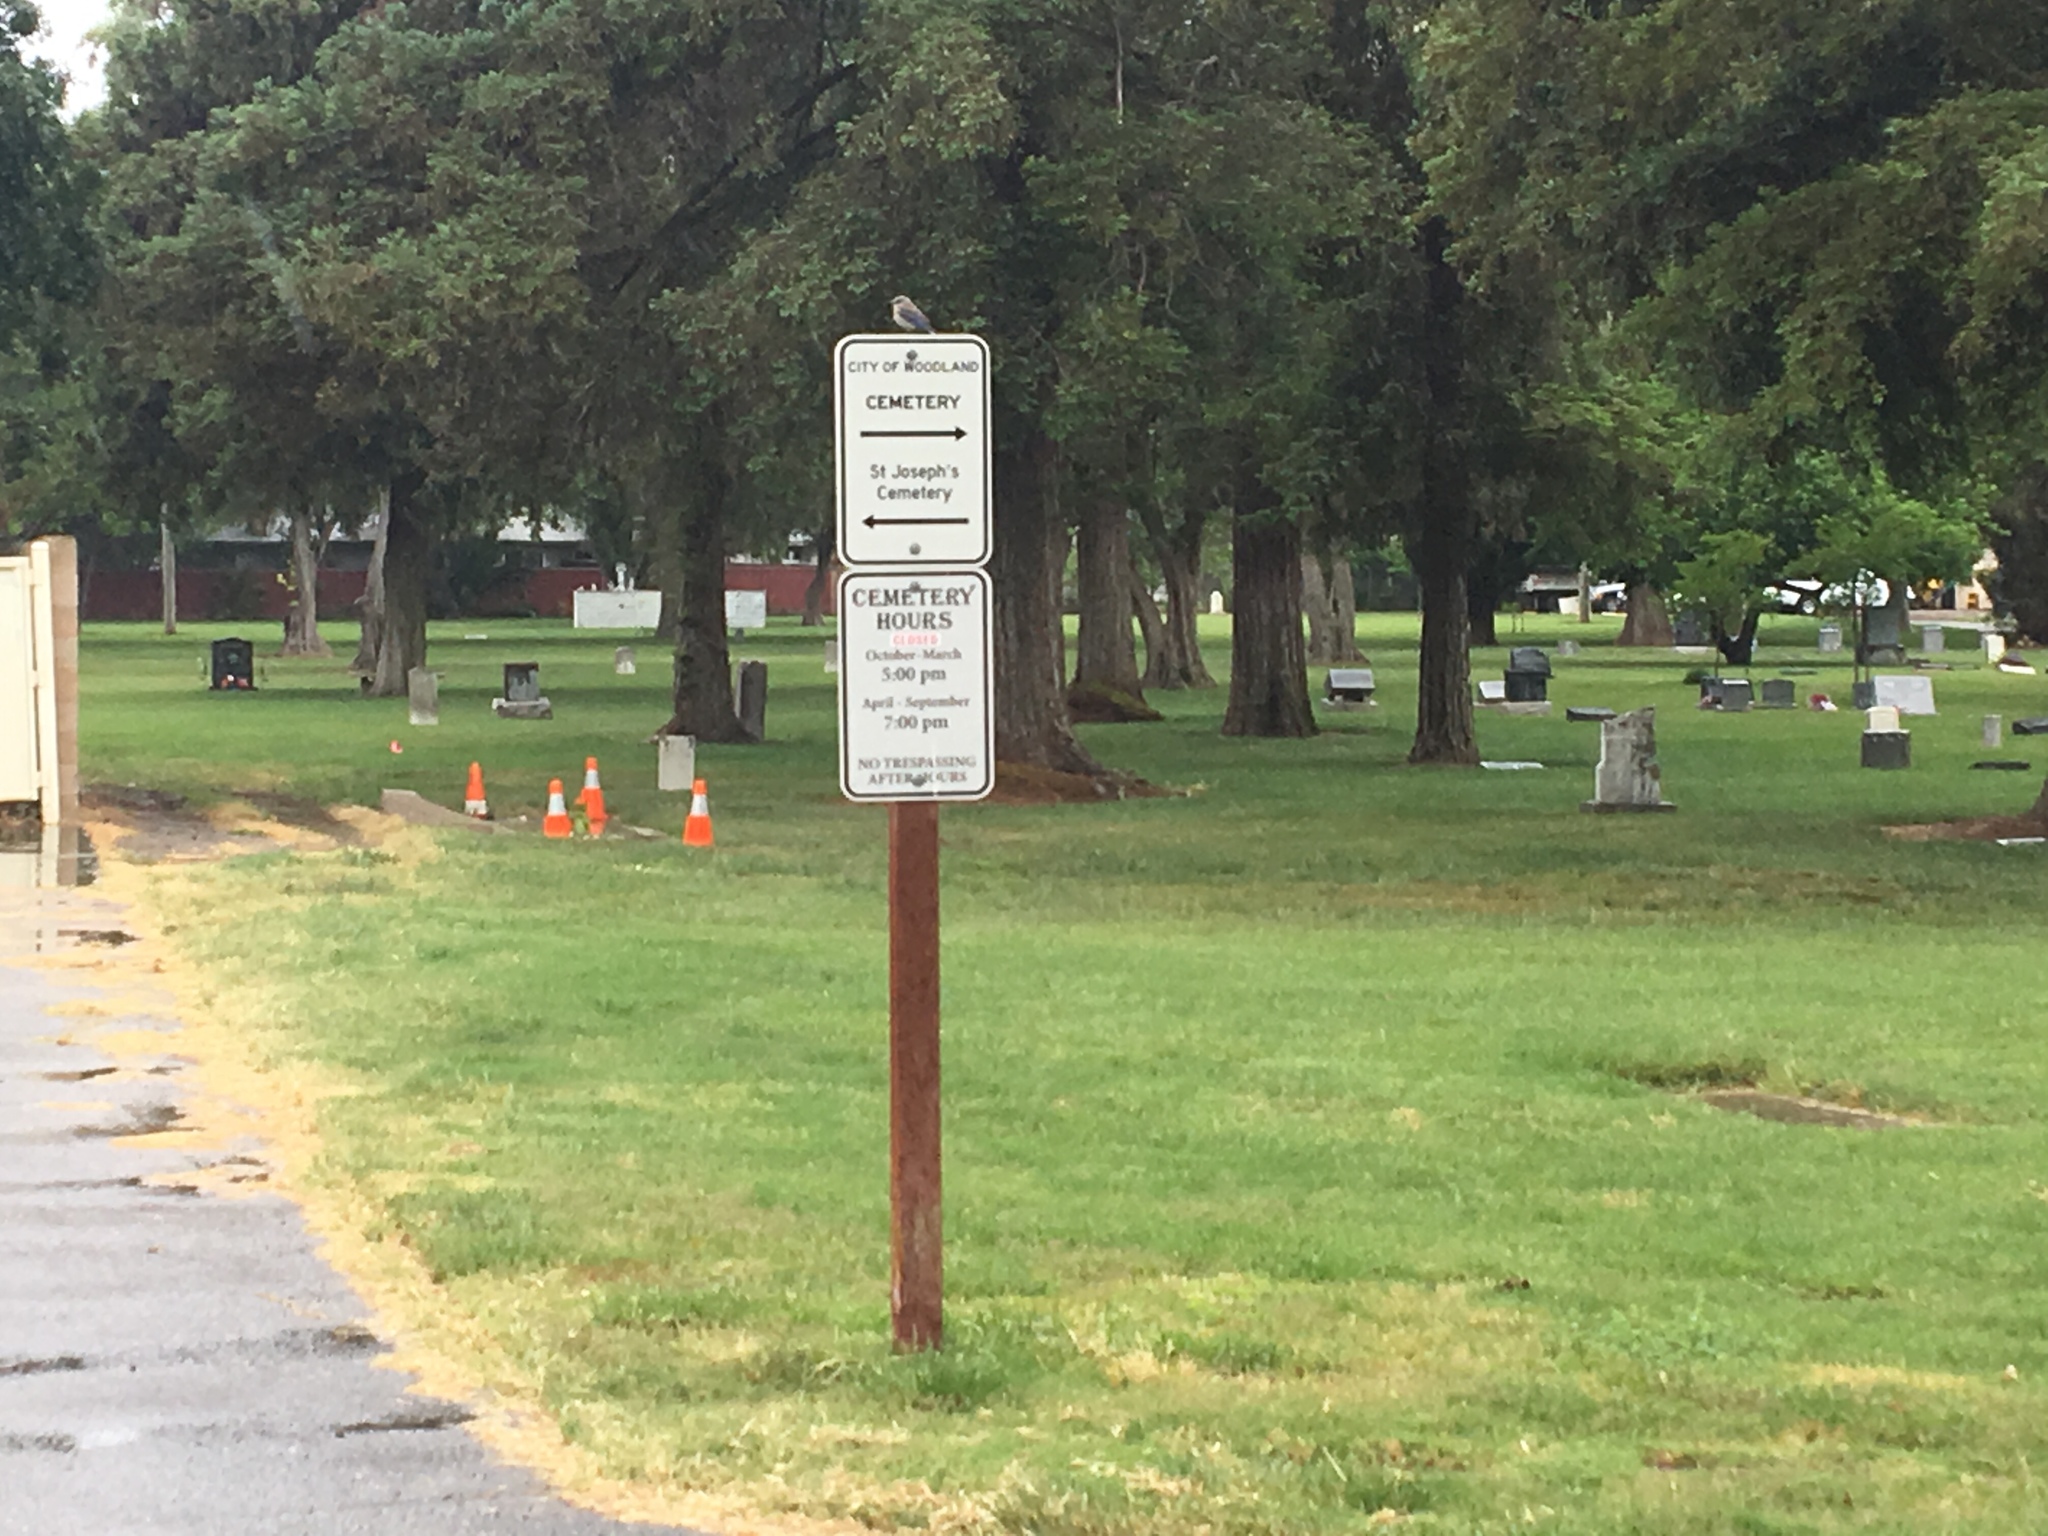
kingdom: Animalia
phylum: Chordata
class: Aves
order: Passeriformes
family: Turdidae
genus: Sialia
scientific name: Sialia mexicana
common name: Western bluebird
